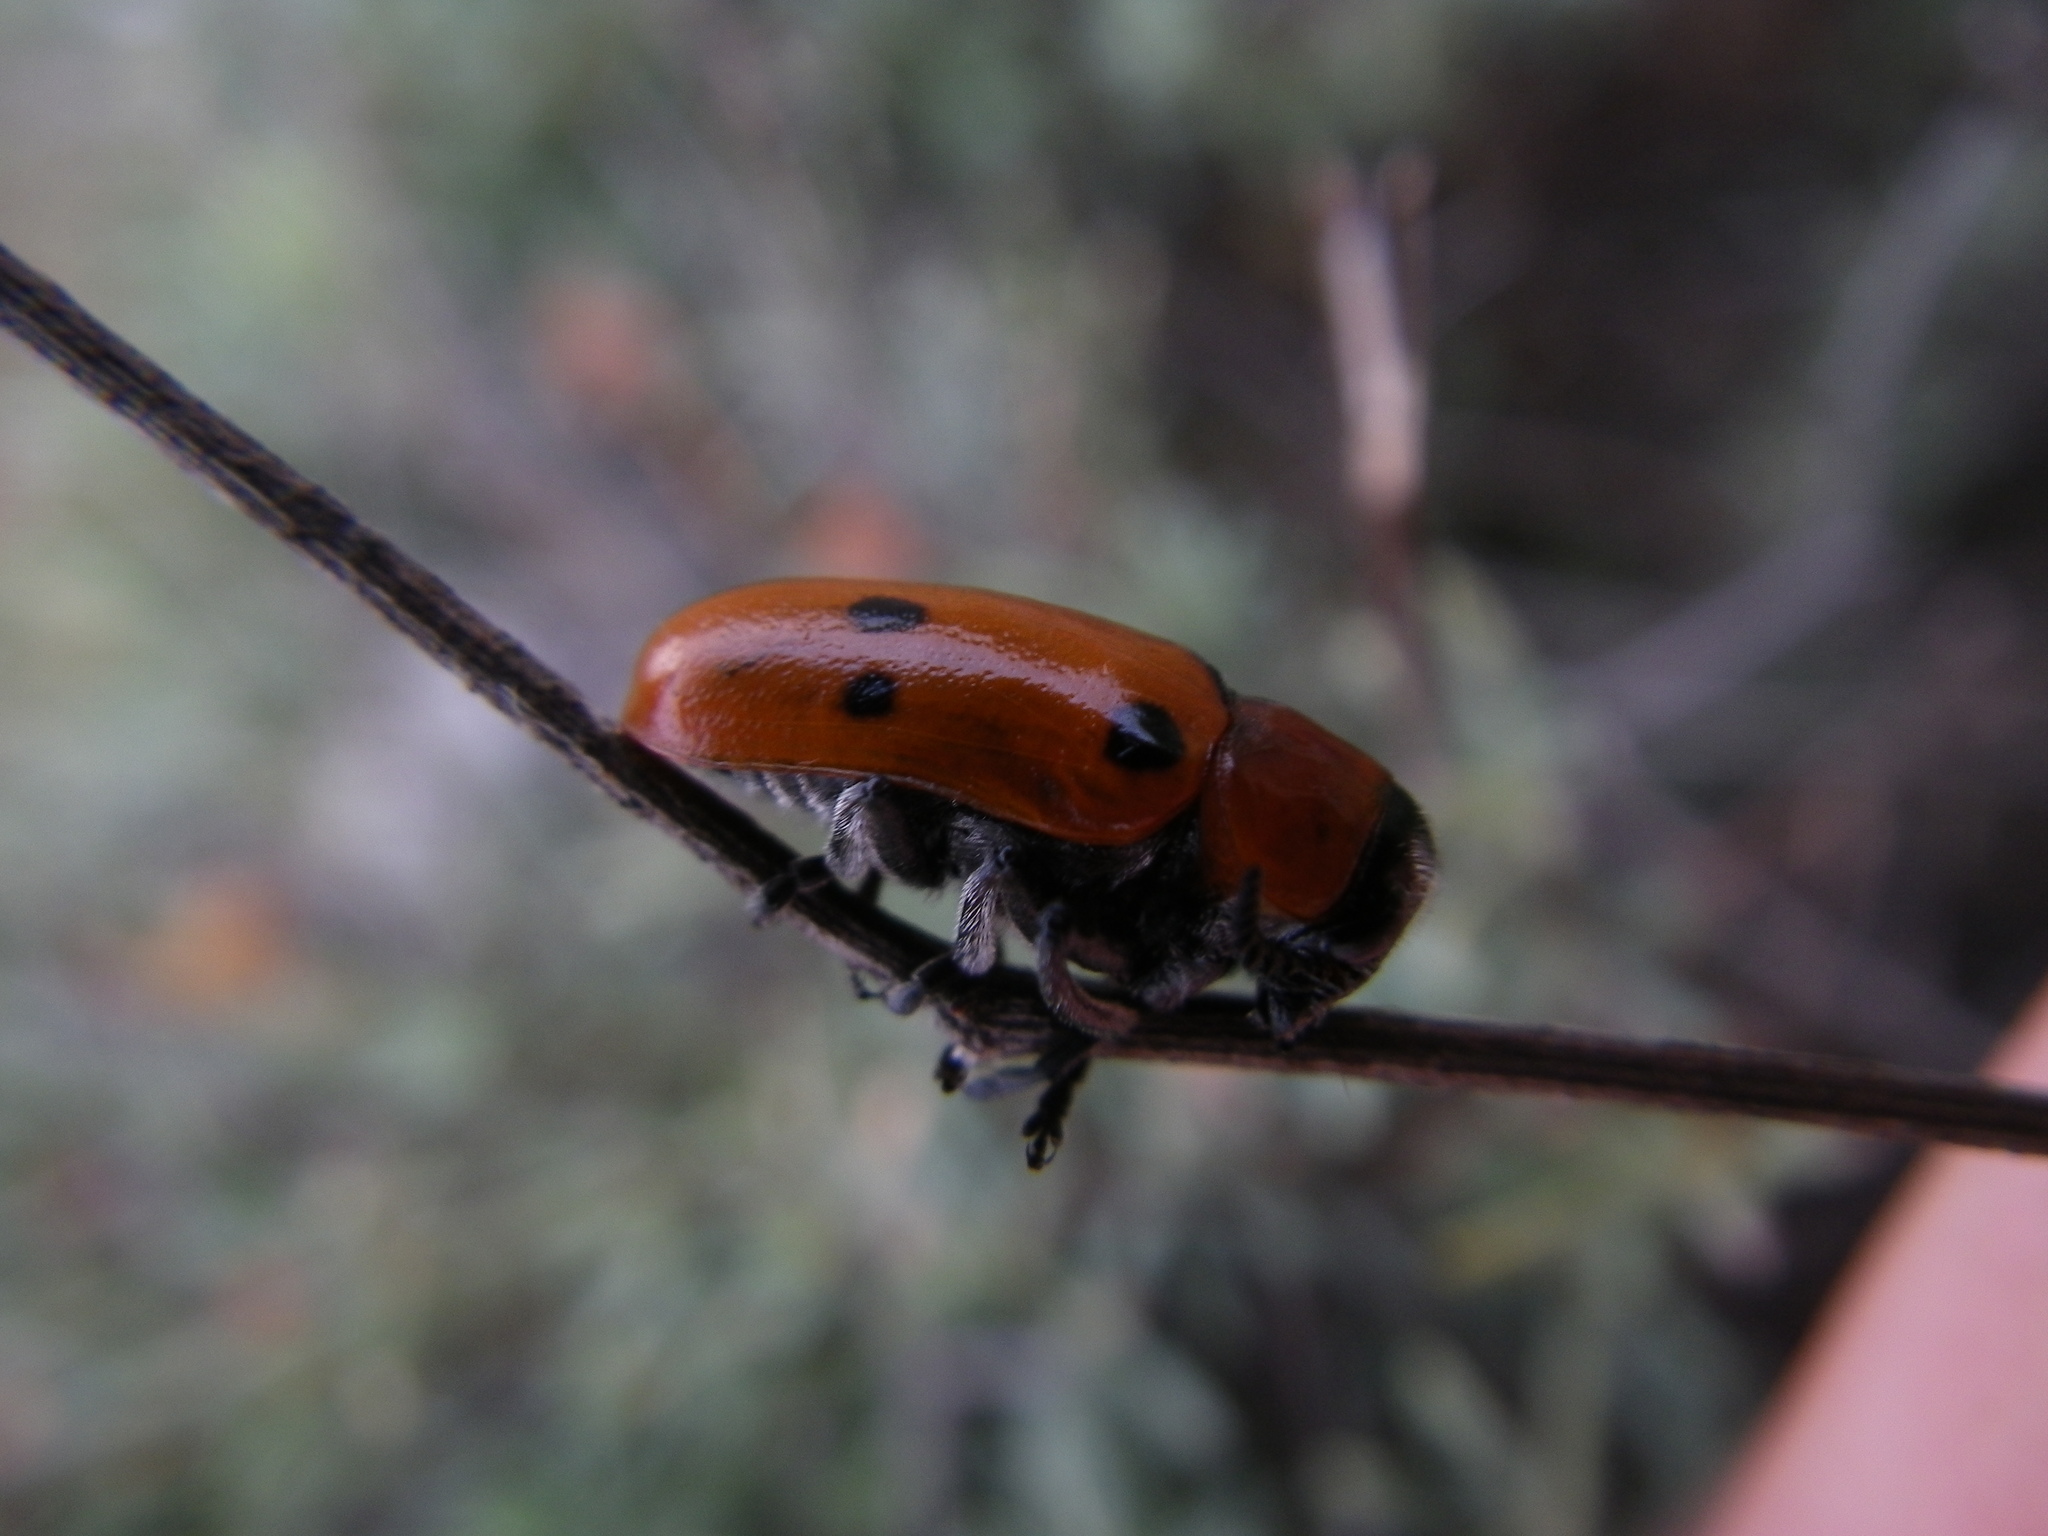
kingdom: Animalia
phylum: Arthropoda
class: Insecta
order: Coleoptera
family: Chrysomelidae
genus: Tituboea
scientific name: Tituboea sexmaculata
